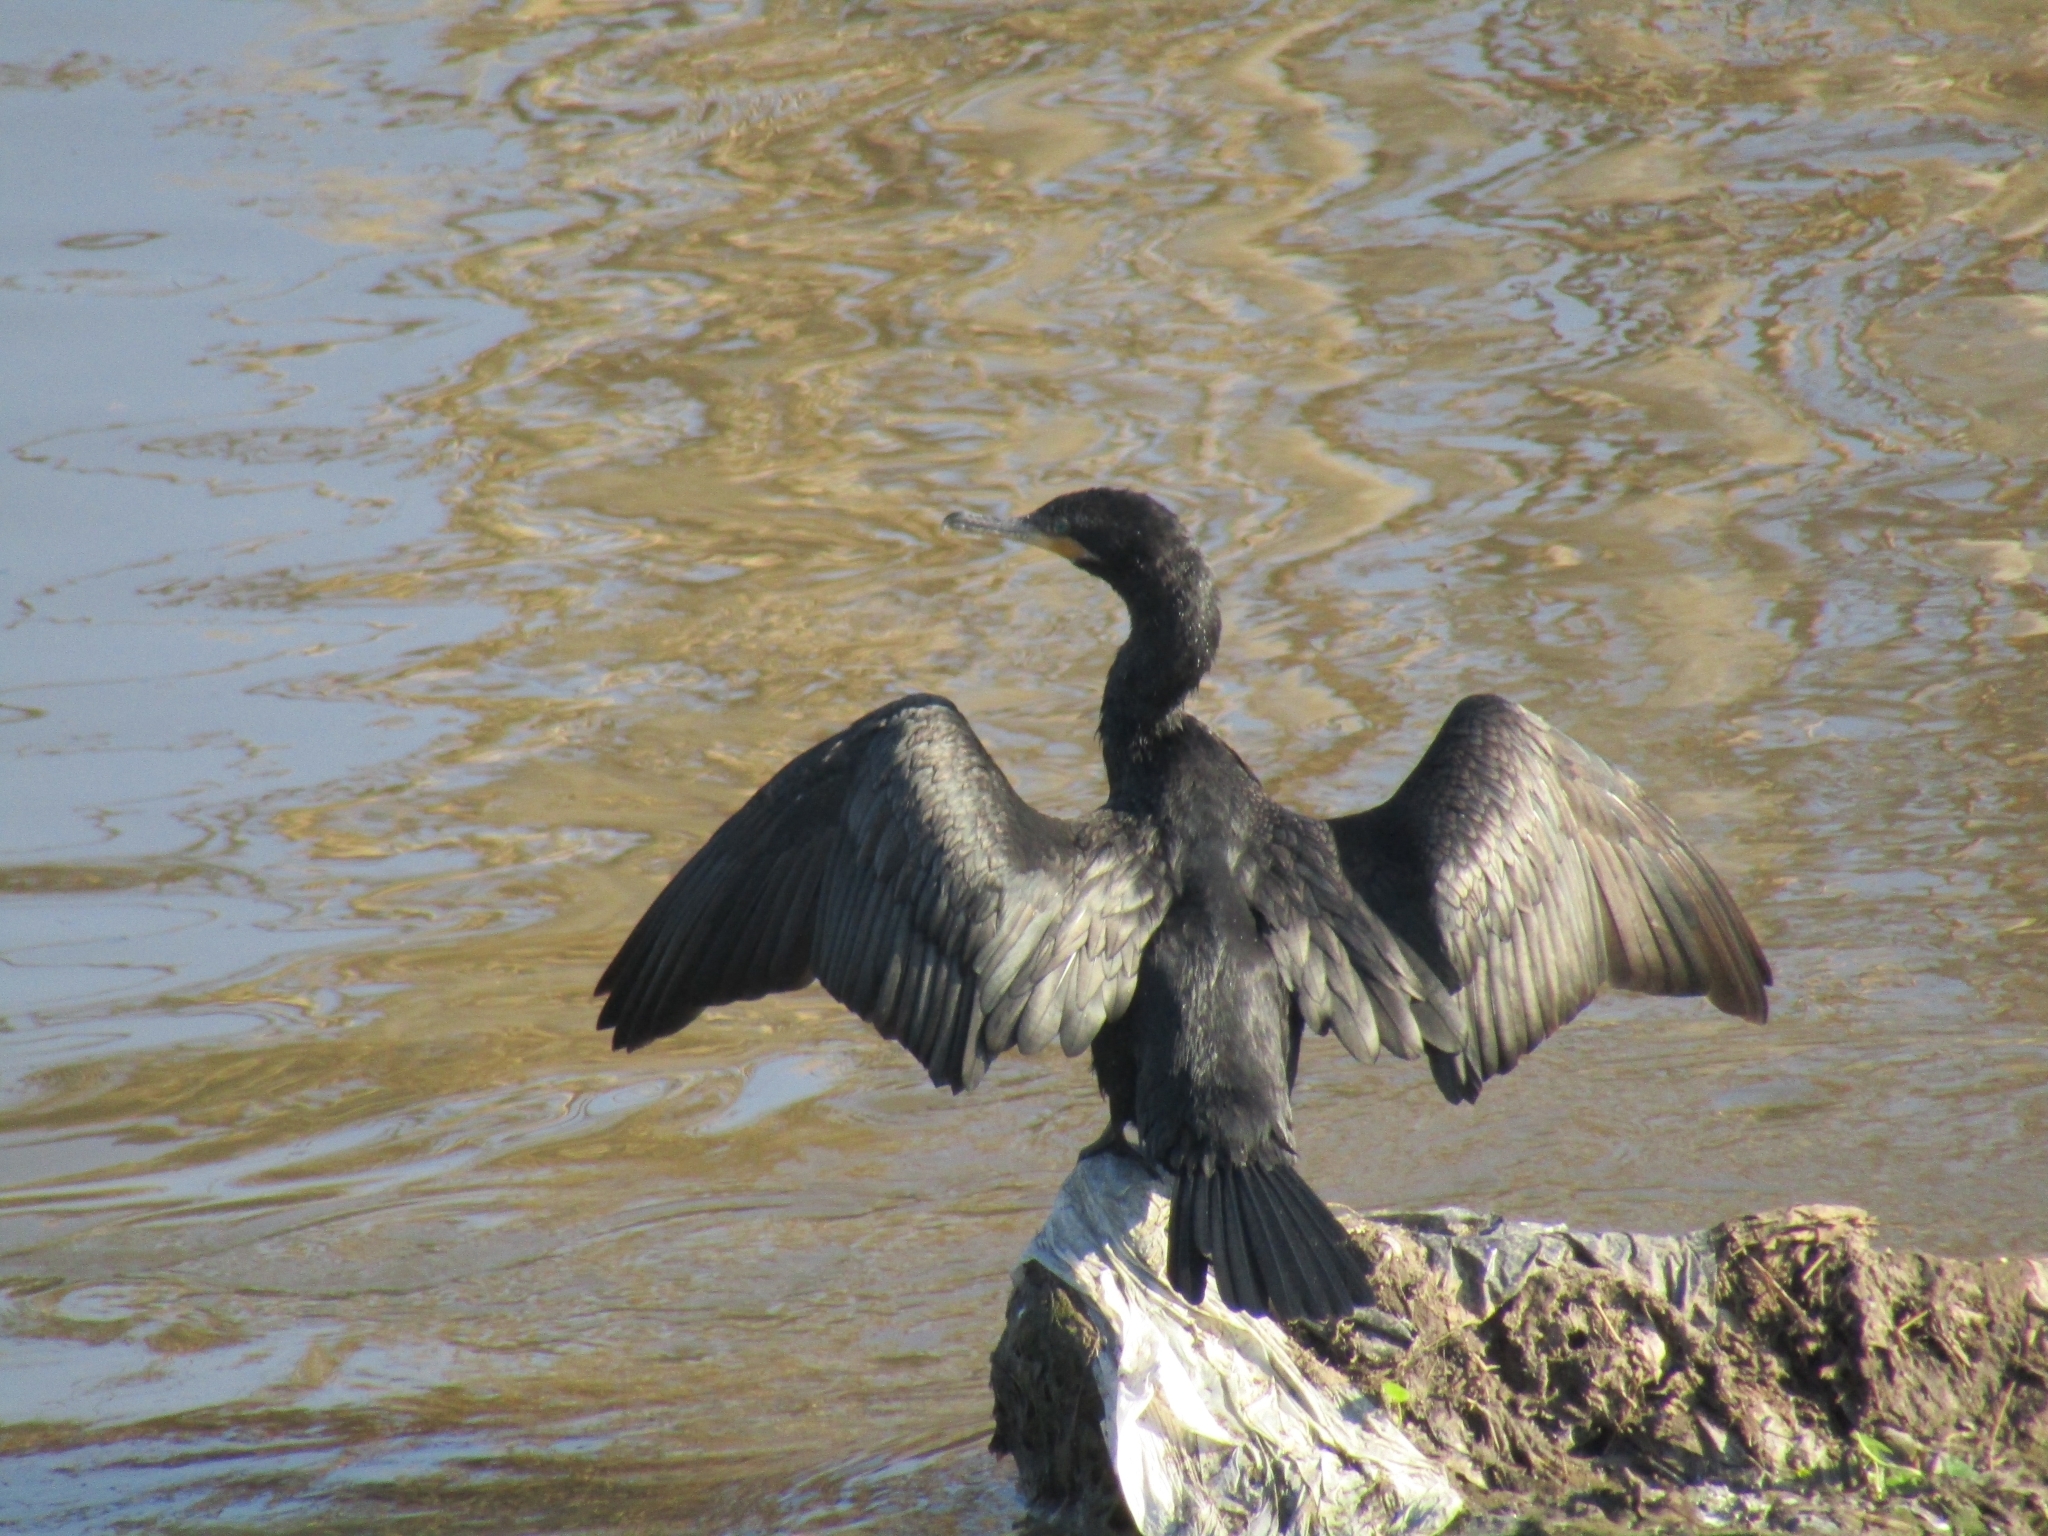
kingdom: Animalia
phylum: Chordata
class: Aves
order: Suliformes
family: Phalacrocoracidae
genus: Phalacrocorax
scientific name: Phalacrocorax brasilianus
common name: Neotropic cormorant
